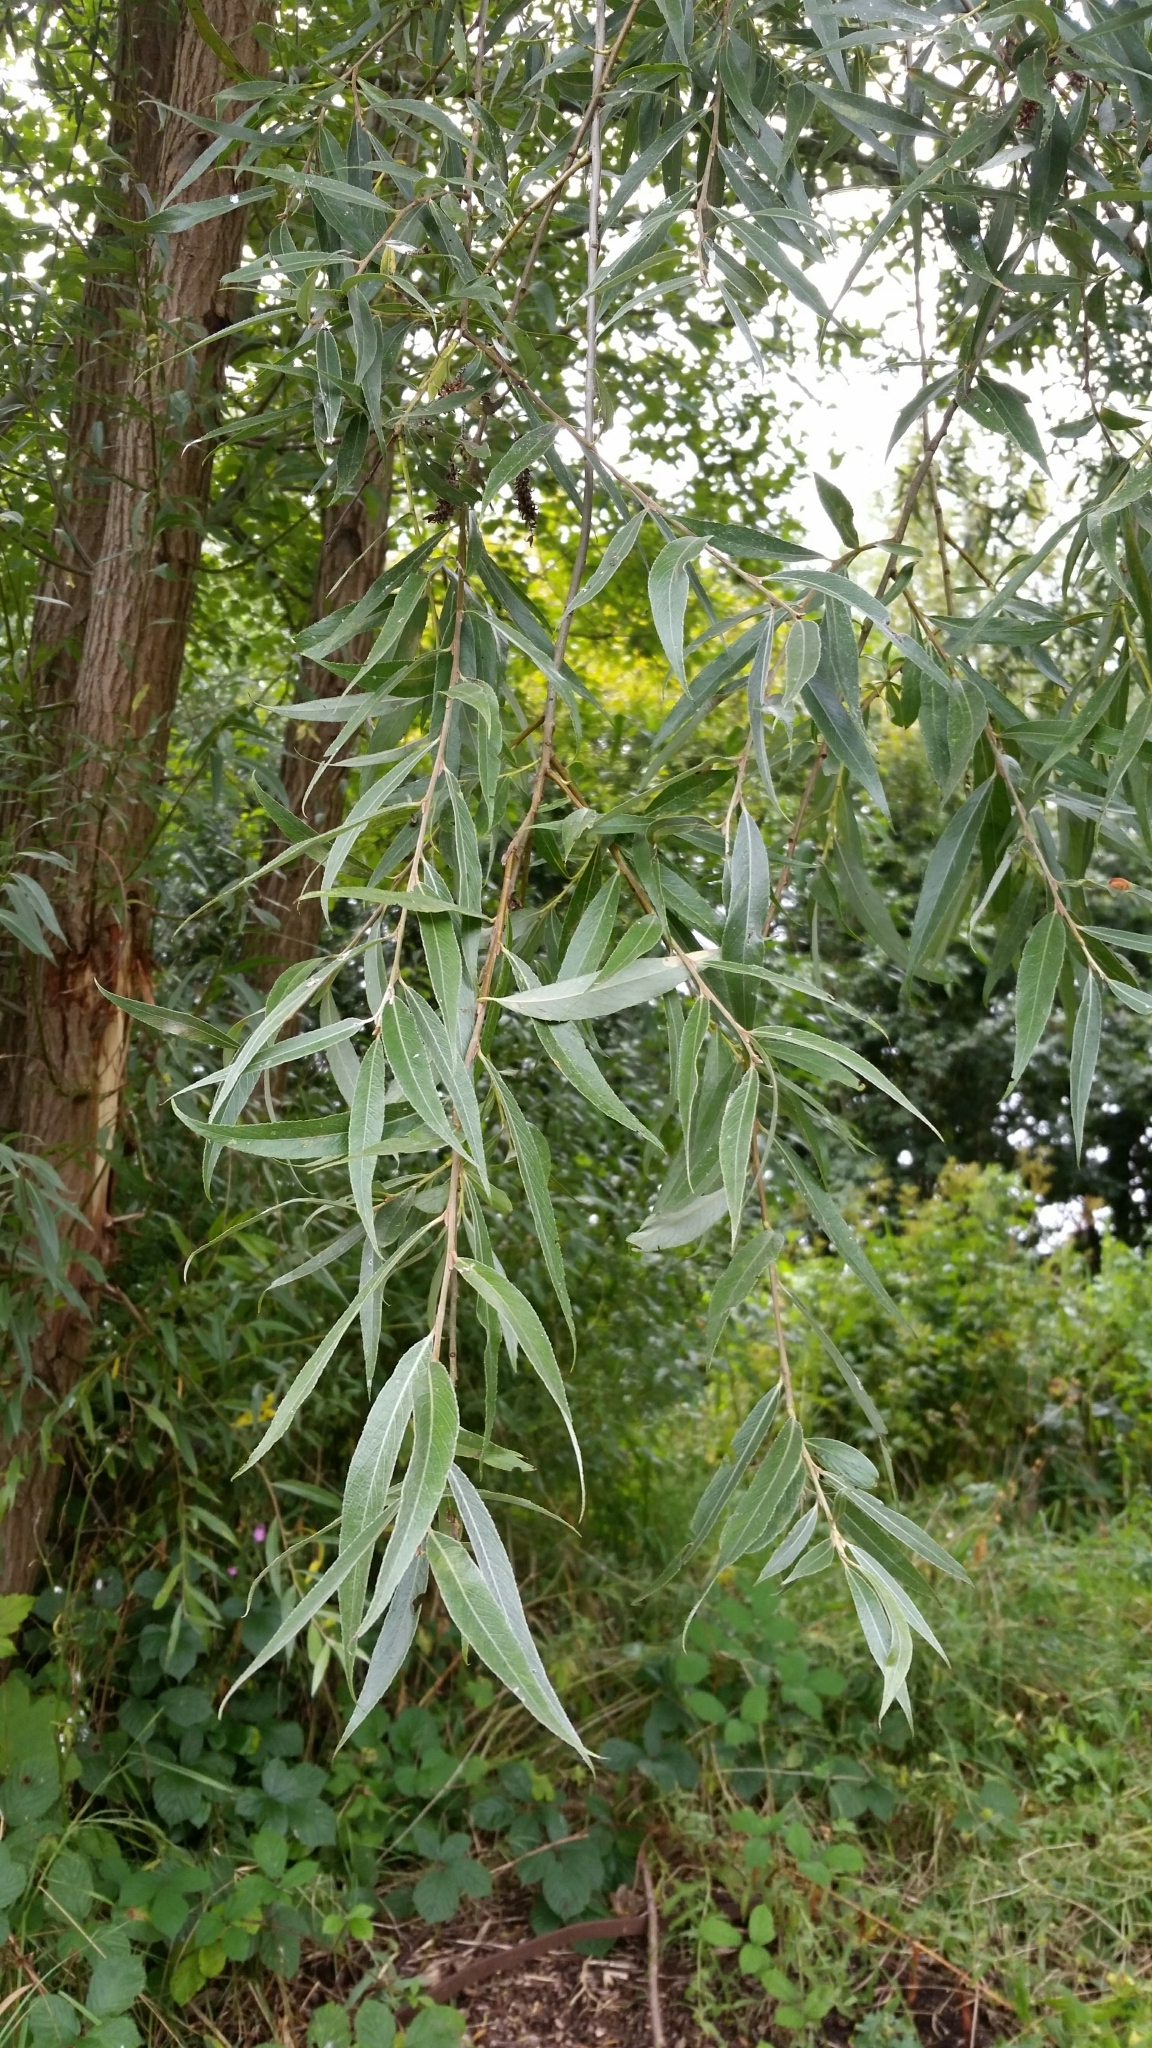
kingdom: Plantae
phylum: Tracheophyta
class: Magnoliopsida
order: Malpighiales
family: Salicaceae
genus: Salix
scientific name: Salix alba
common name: White willow
